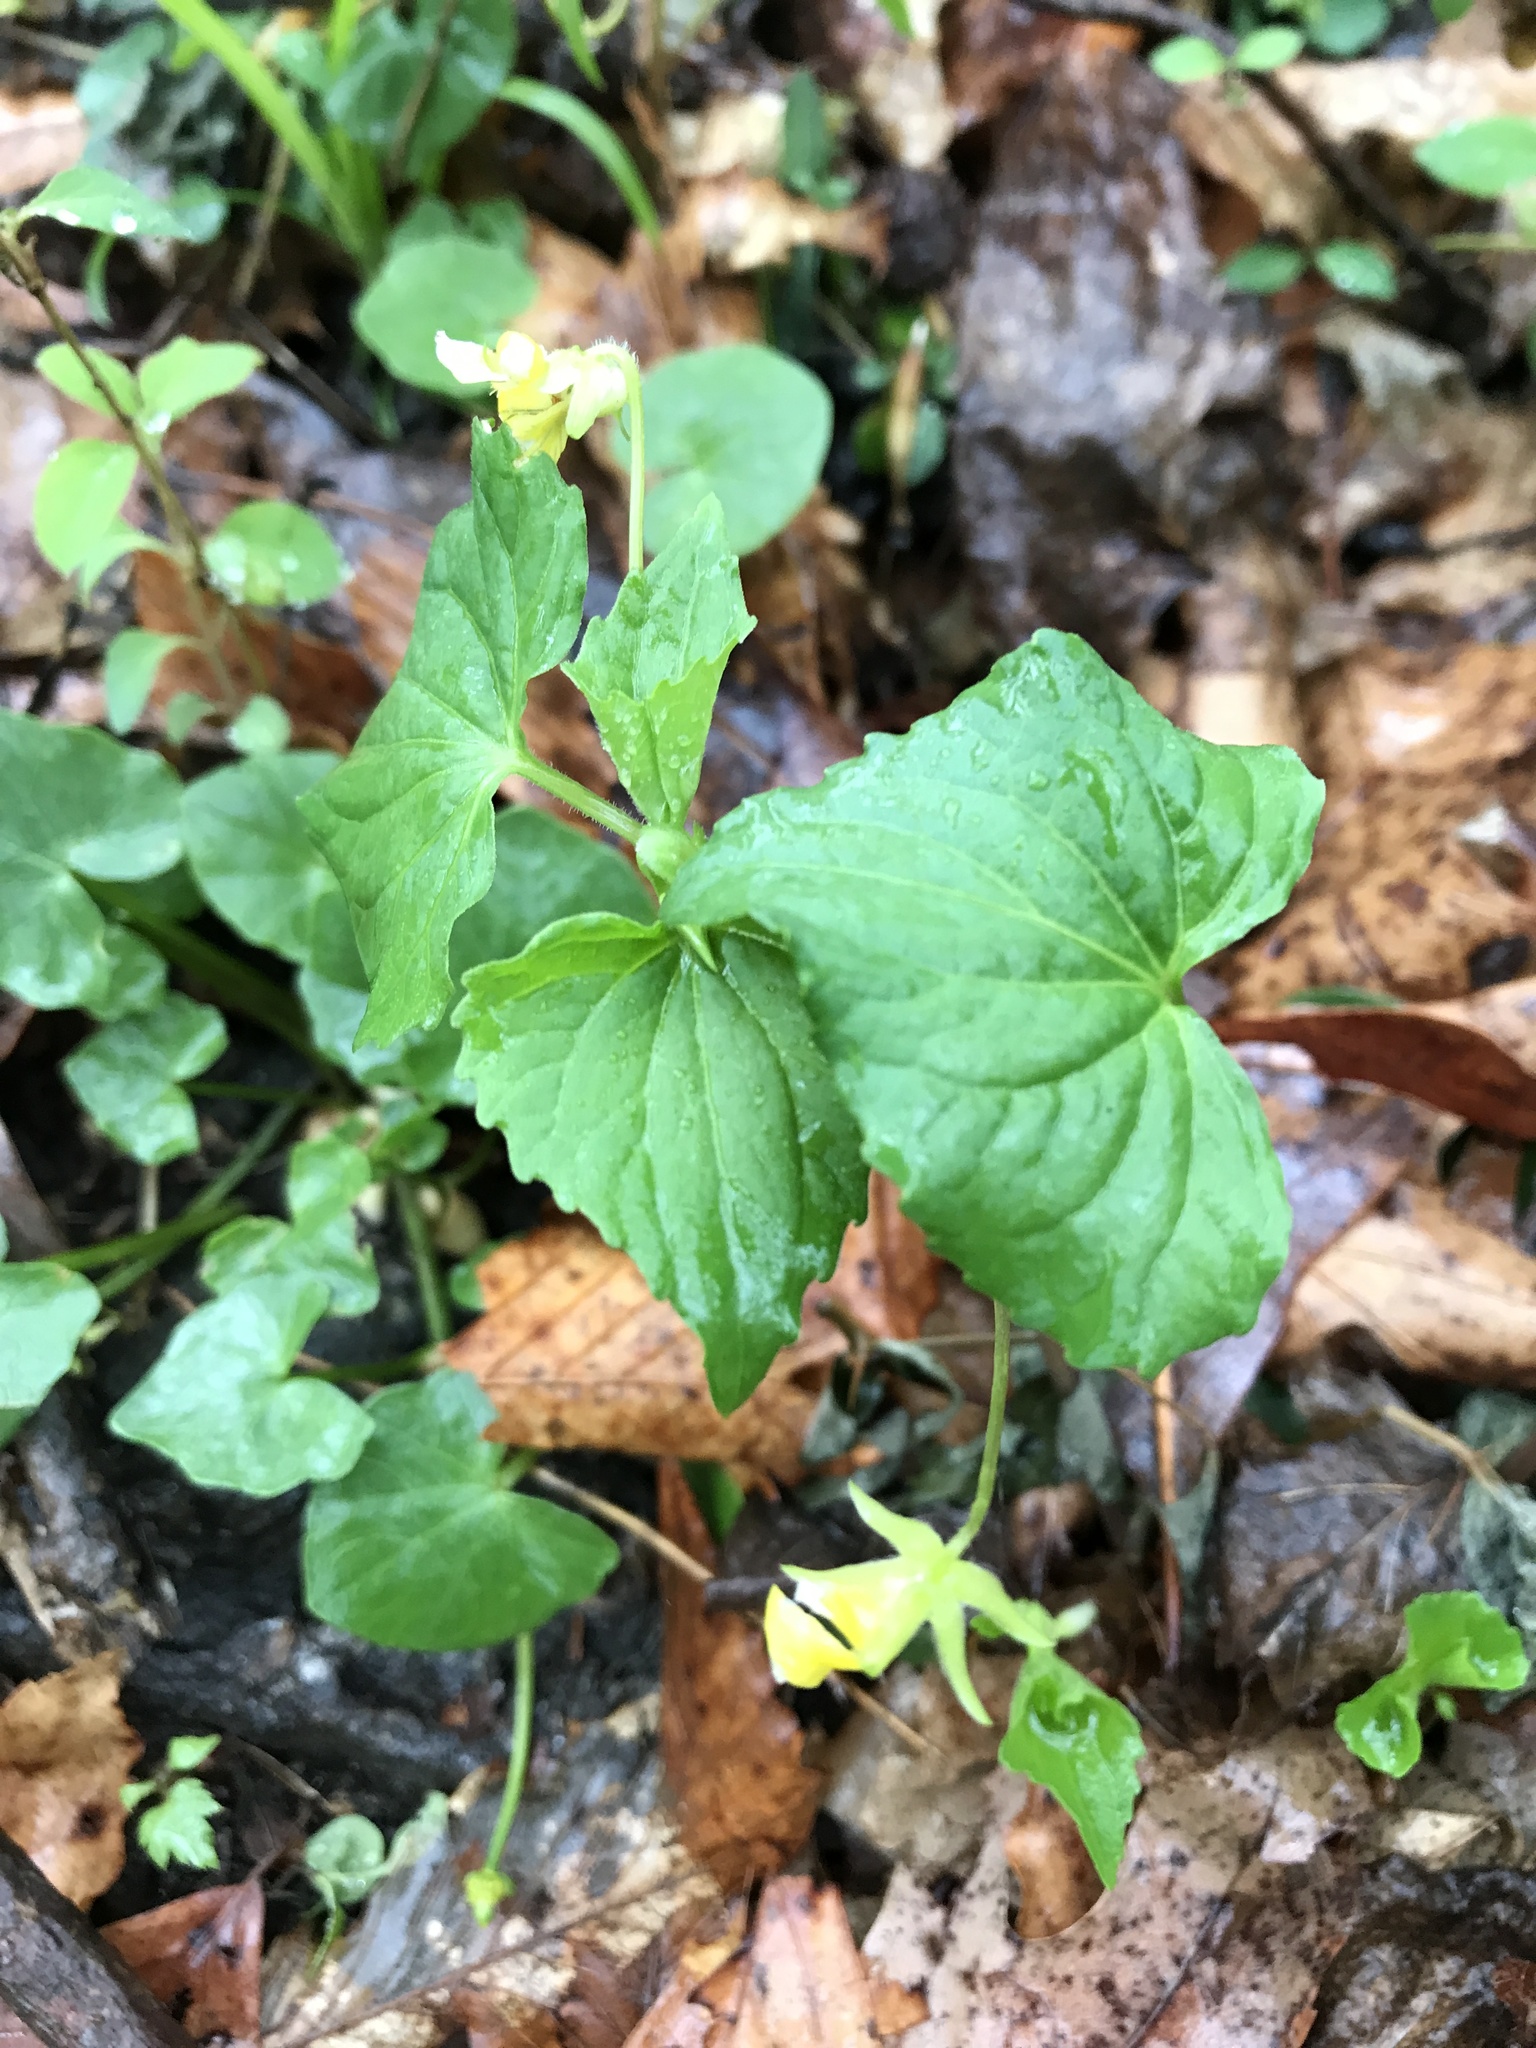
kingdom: Plantae
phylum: Tracheophyta
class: Magnoliopsida
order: Malpighiales
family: Violaceae
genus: Viola
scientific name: Viola eriocarpa
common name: Smooth yellow violet
